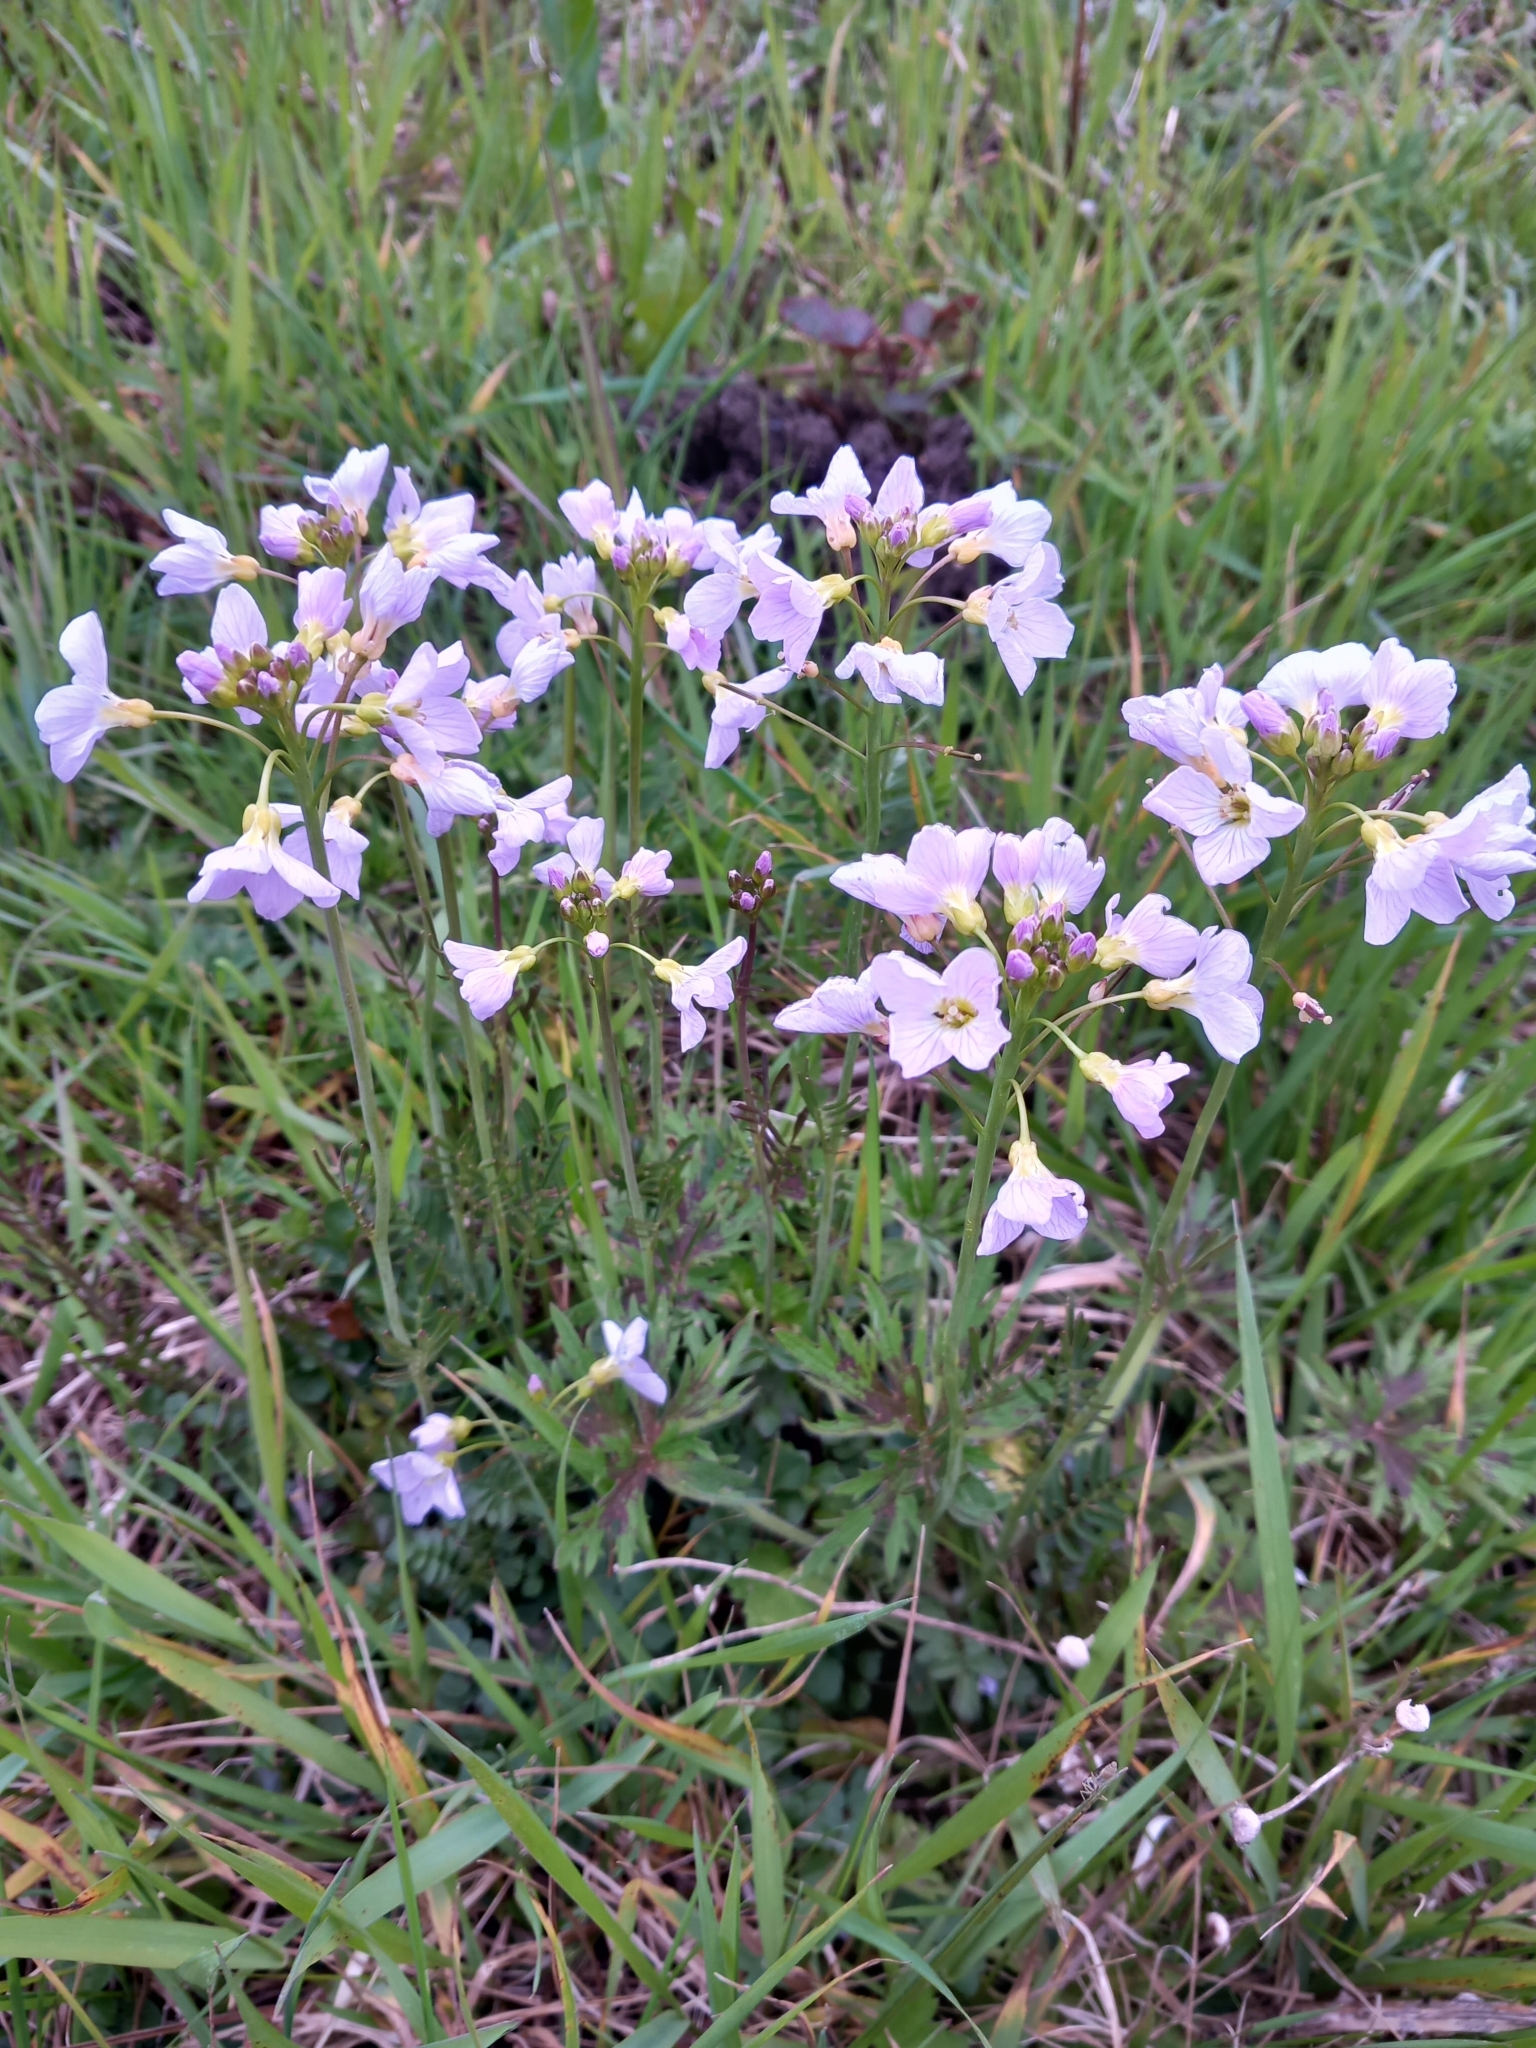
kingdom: Plantae
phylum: Tracheophyta
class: Magnoliopsida
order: Brassicales
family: Brassicaceae
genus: Cardamine
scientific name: Cardamine pratensis
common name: Cuckoo flower
